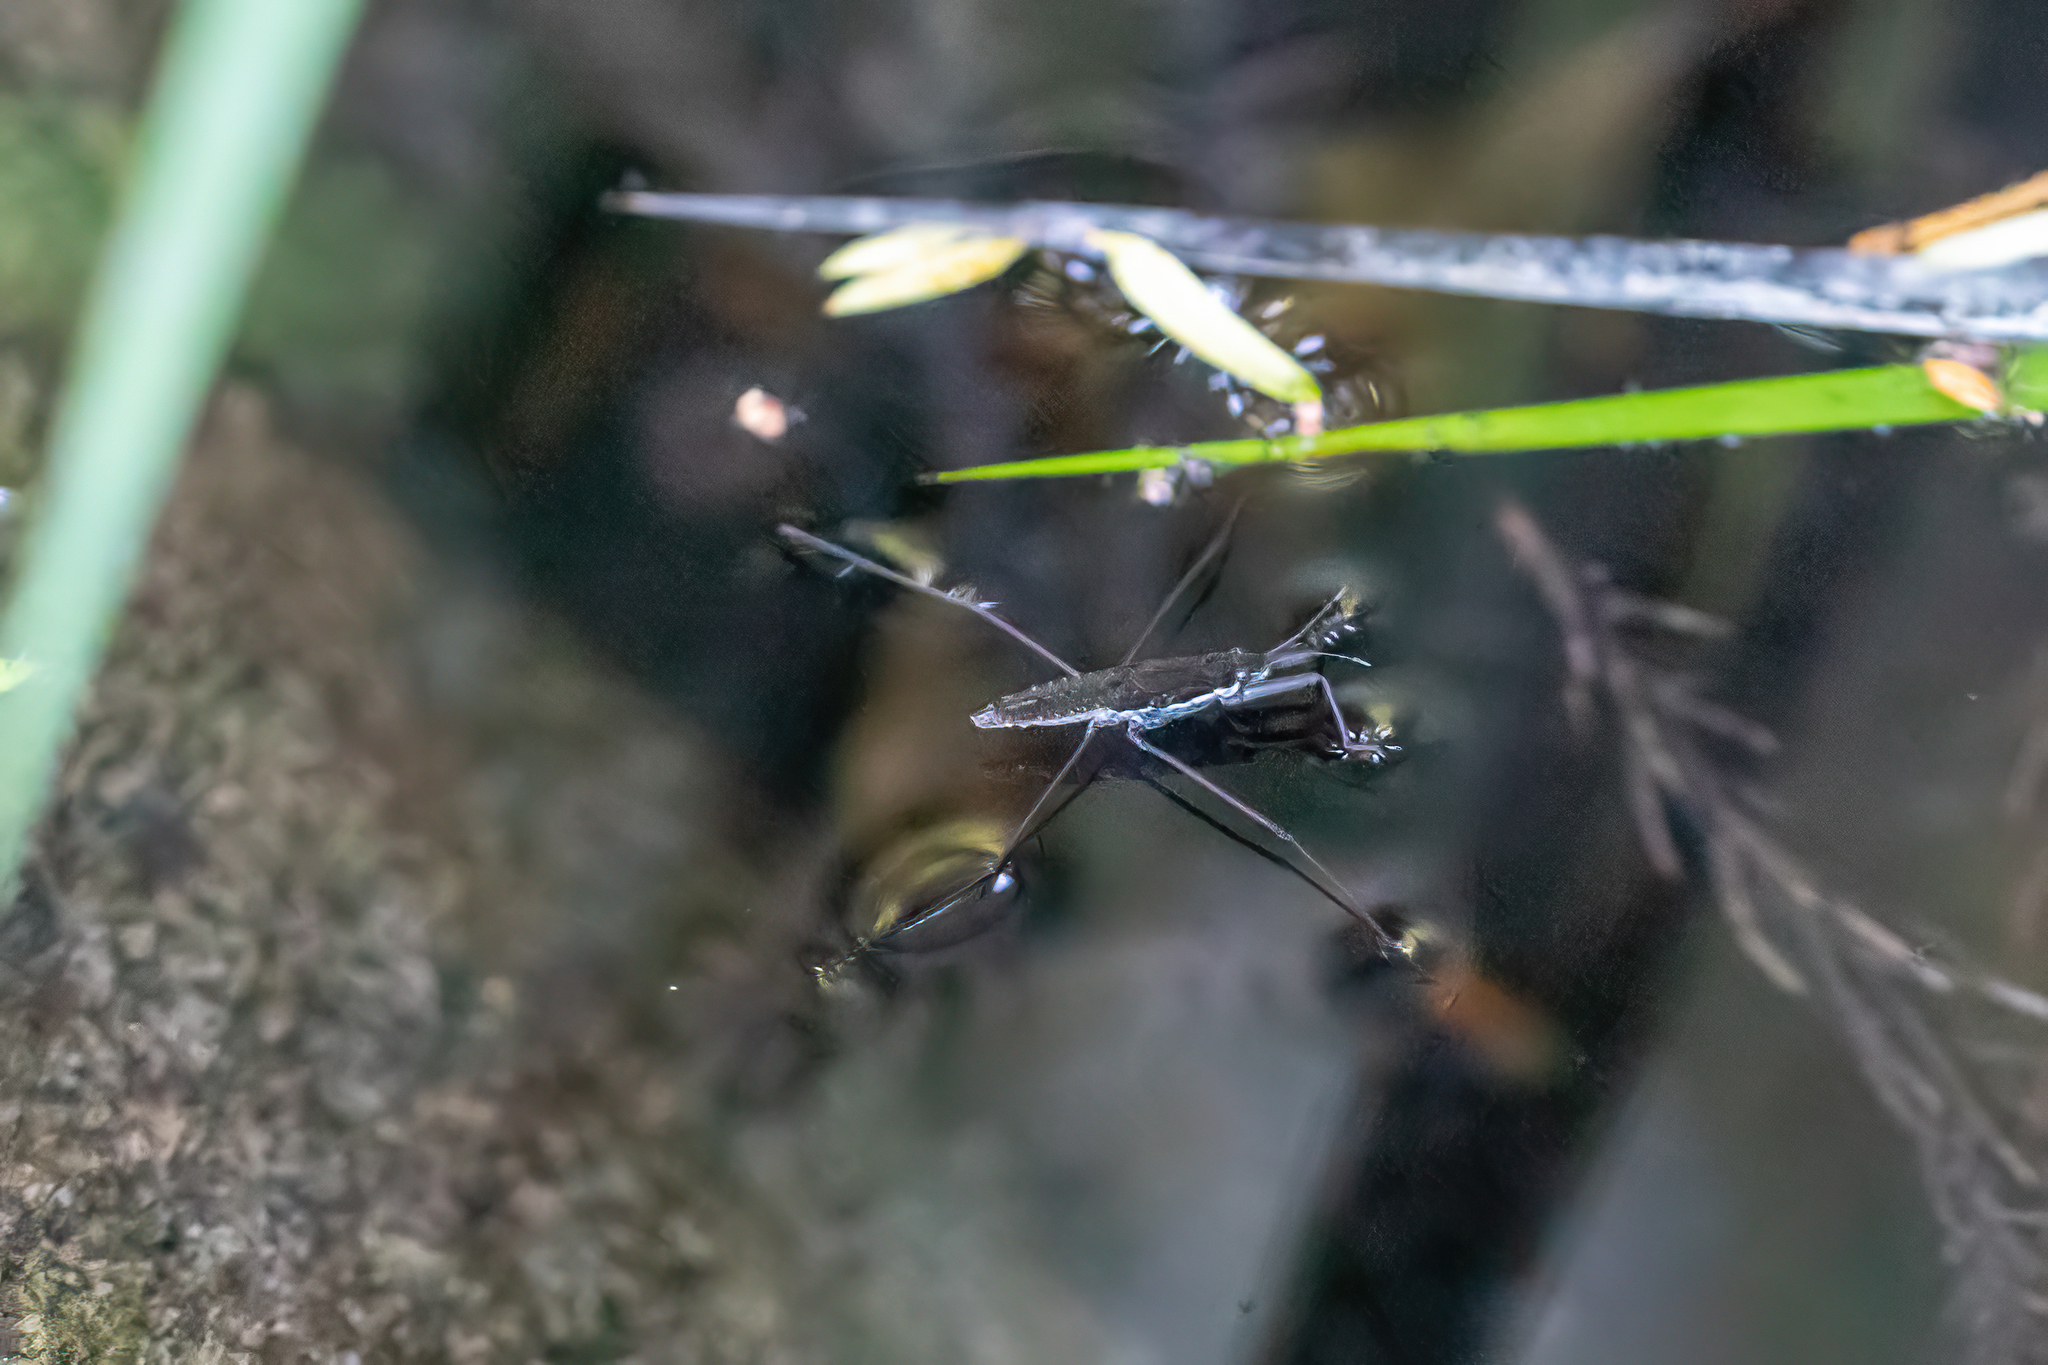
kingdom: Animalia
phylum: Arthropoda
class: Insecta
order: Hemiptera
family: Gerridae
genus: Aquarius
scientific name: Aquarius remigis
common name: Common water strider
